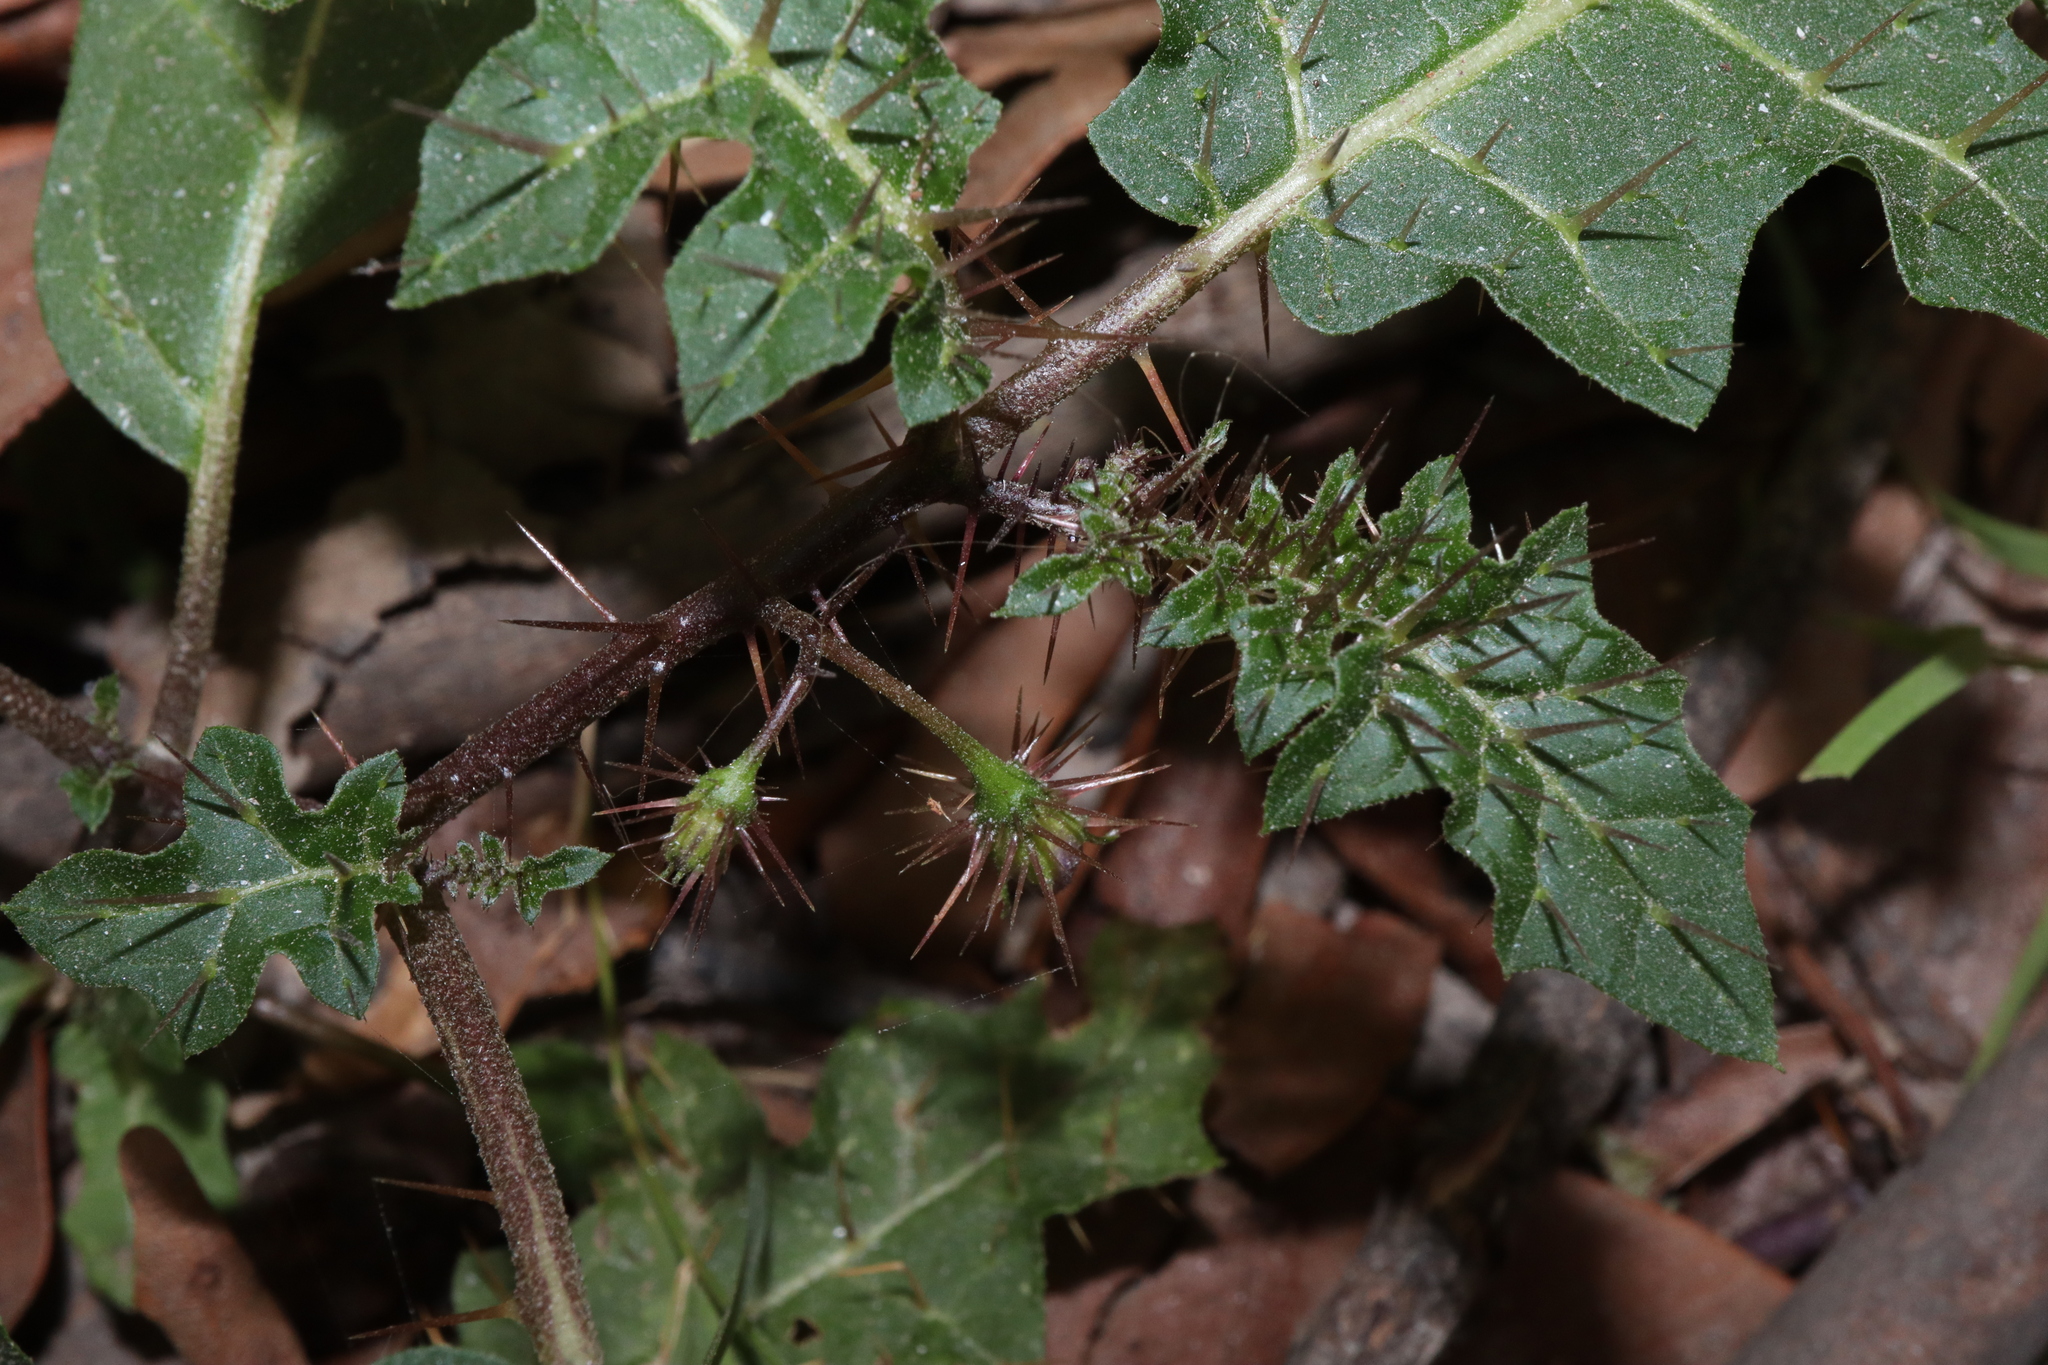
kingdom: Plantae
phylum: Tracheophyta
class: Magnoliopsida
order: Solanales
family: Solanaceae
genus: Solanum
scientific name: Solanum prinophyllum
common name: Forest nightshade
